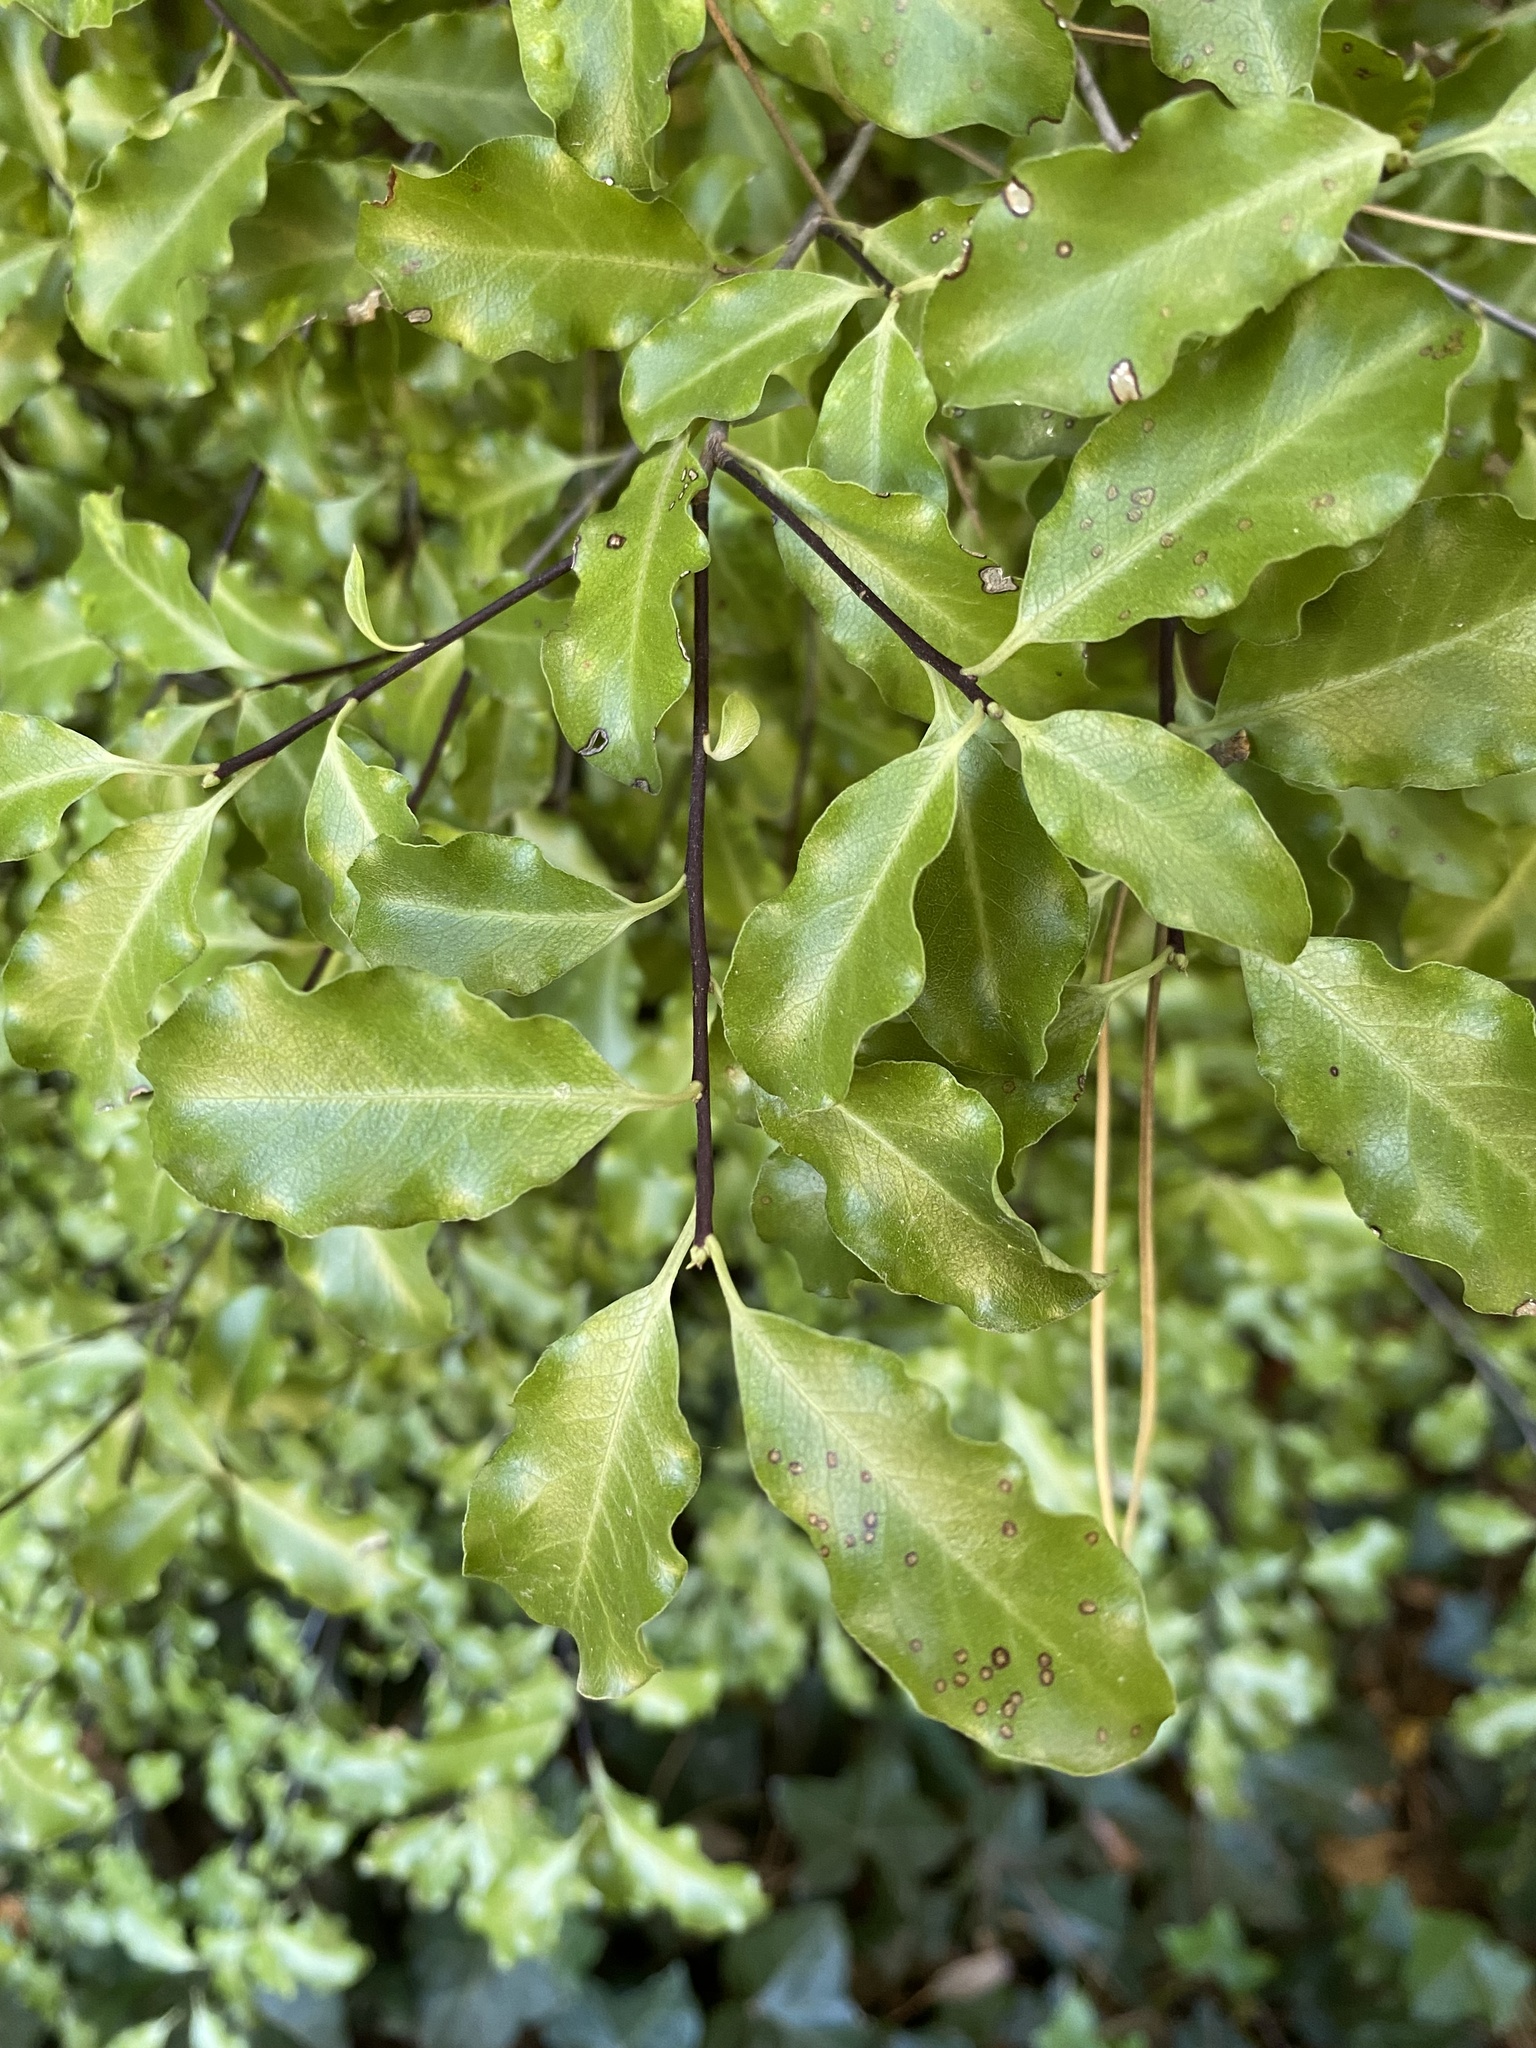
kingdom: Plantae
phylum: Tracheophyta
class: Magnoliopsida
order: Apiales
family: Pittosporaceae
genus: Pittosporum
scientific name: Pittosporum tenuifolium
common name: Kohuhu
